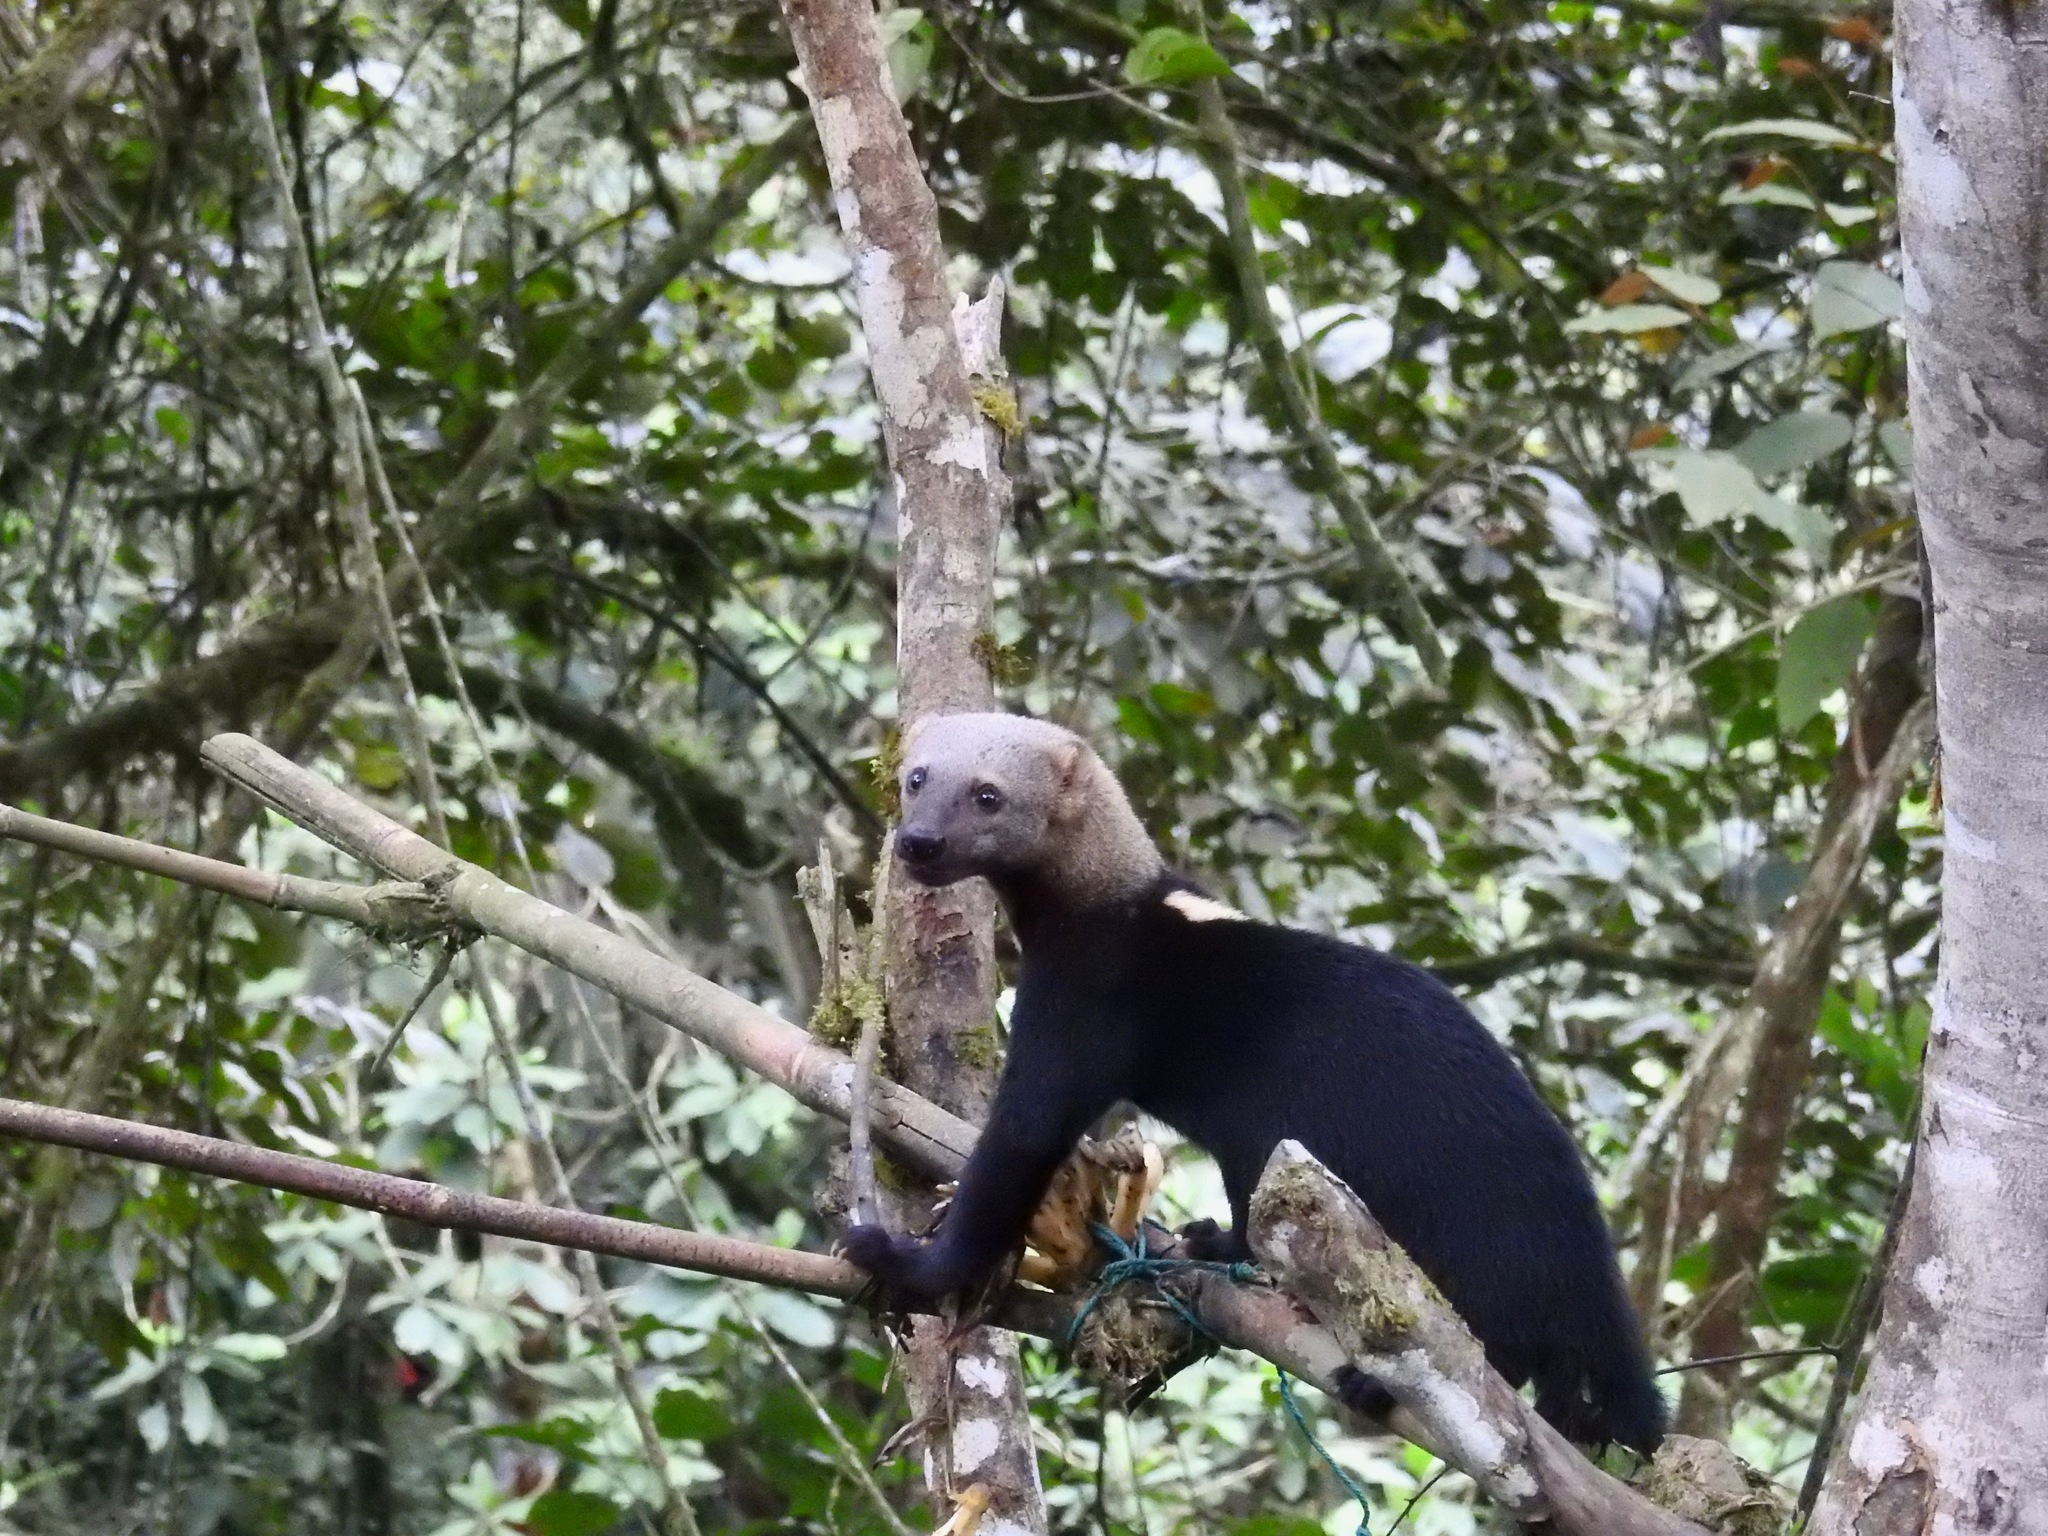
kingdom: Animalia
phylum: Chordata
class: Mammalia
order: Carnivora
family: Mustelidae
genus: Eira
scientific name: Eira barbara
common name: Tayra
